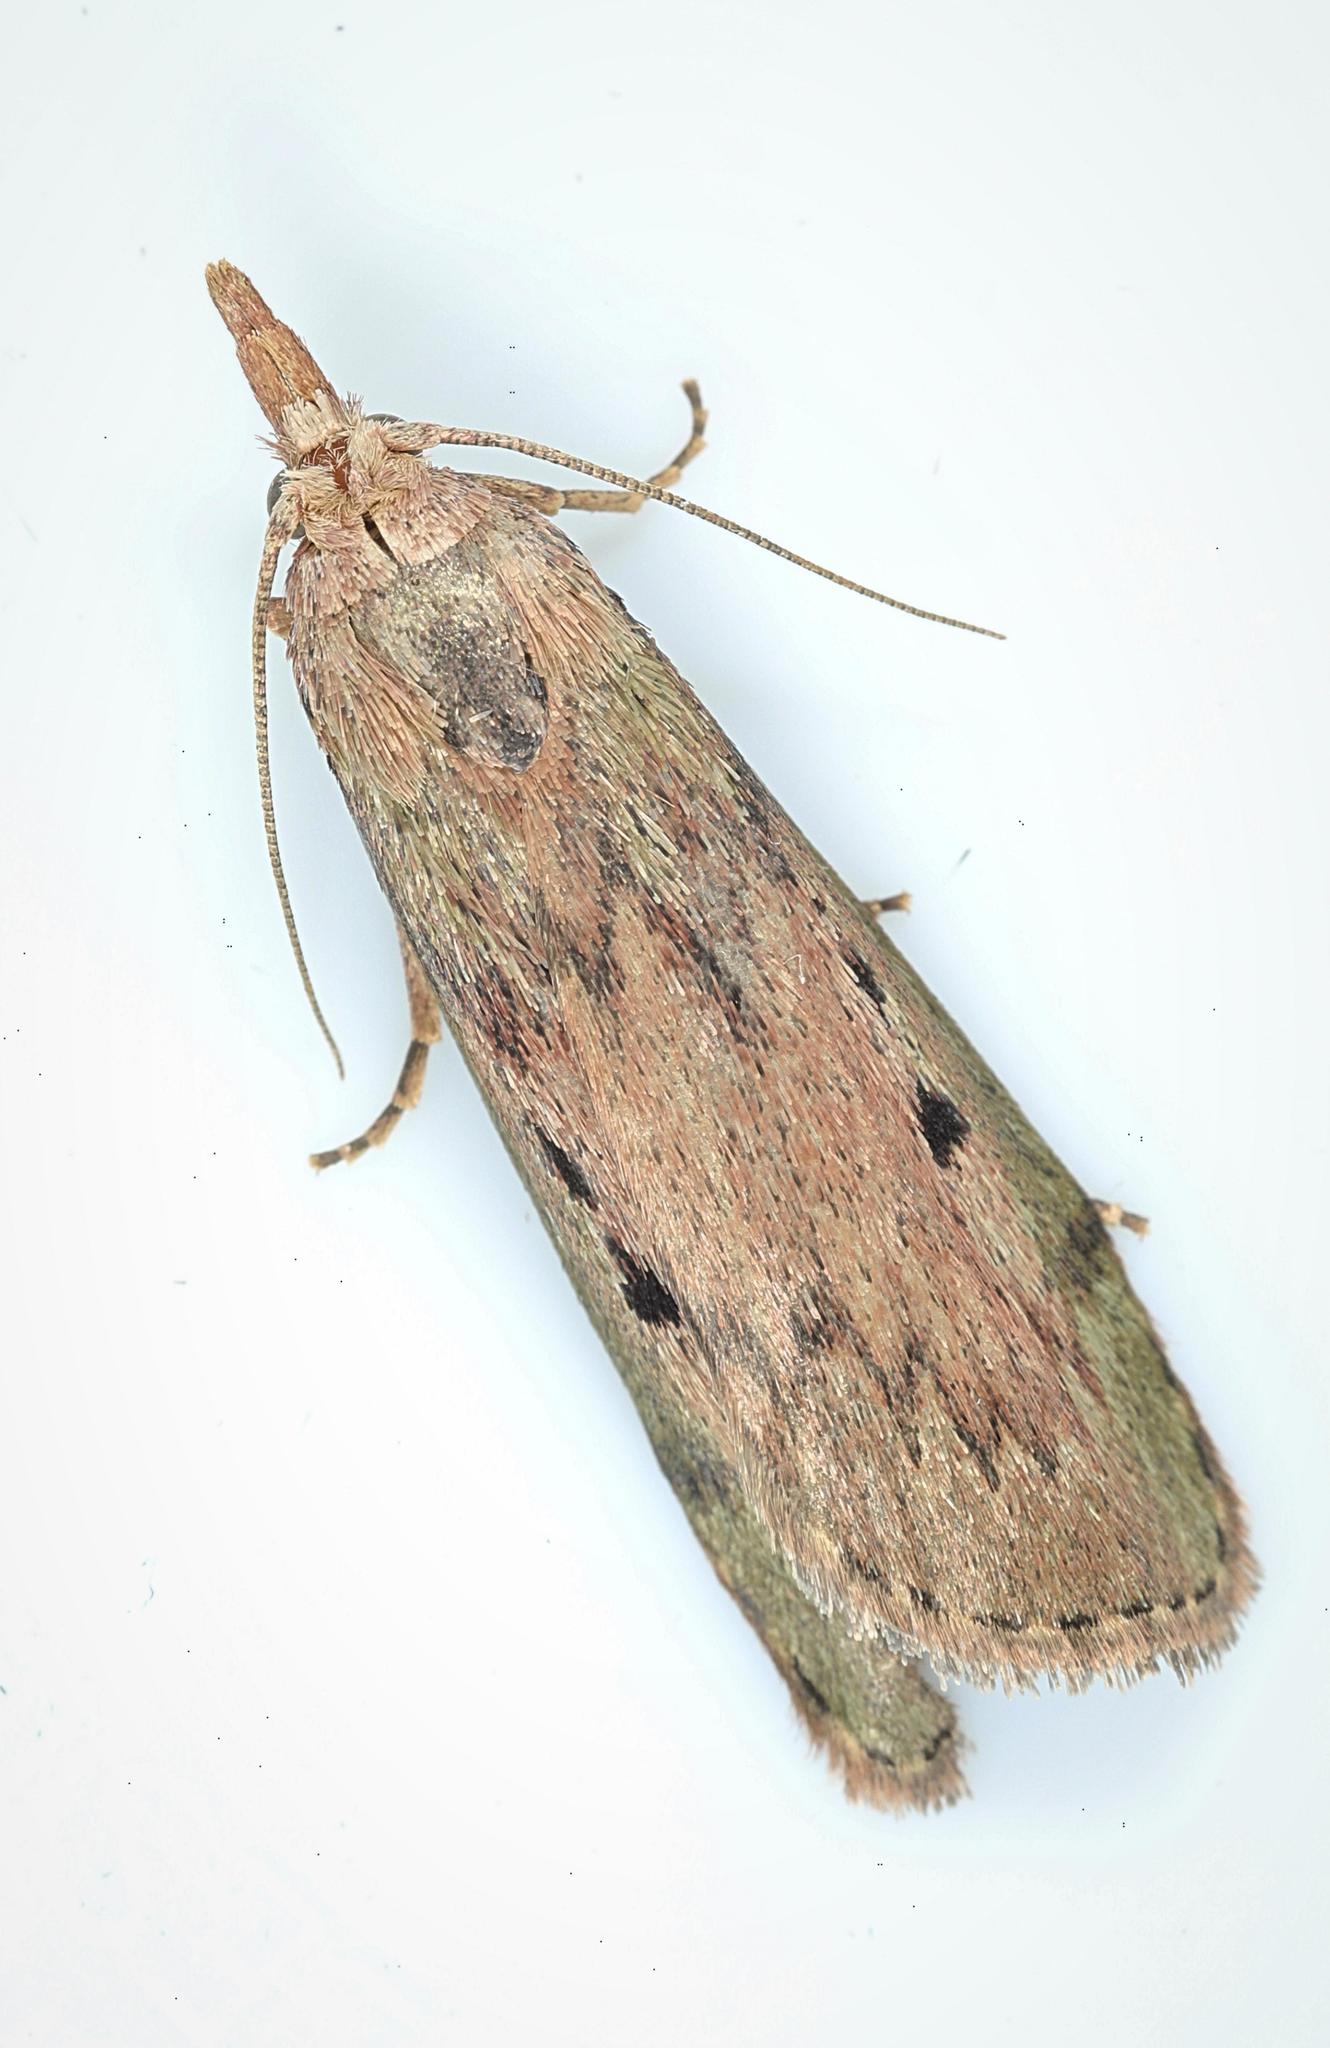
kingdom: Animalia
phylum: Arthropoda
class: Insecta
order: Lepidoptera
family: Pyralidae
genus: Aphomia
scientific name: Aphomia sociella
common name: Bee moth
